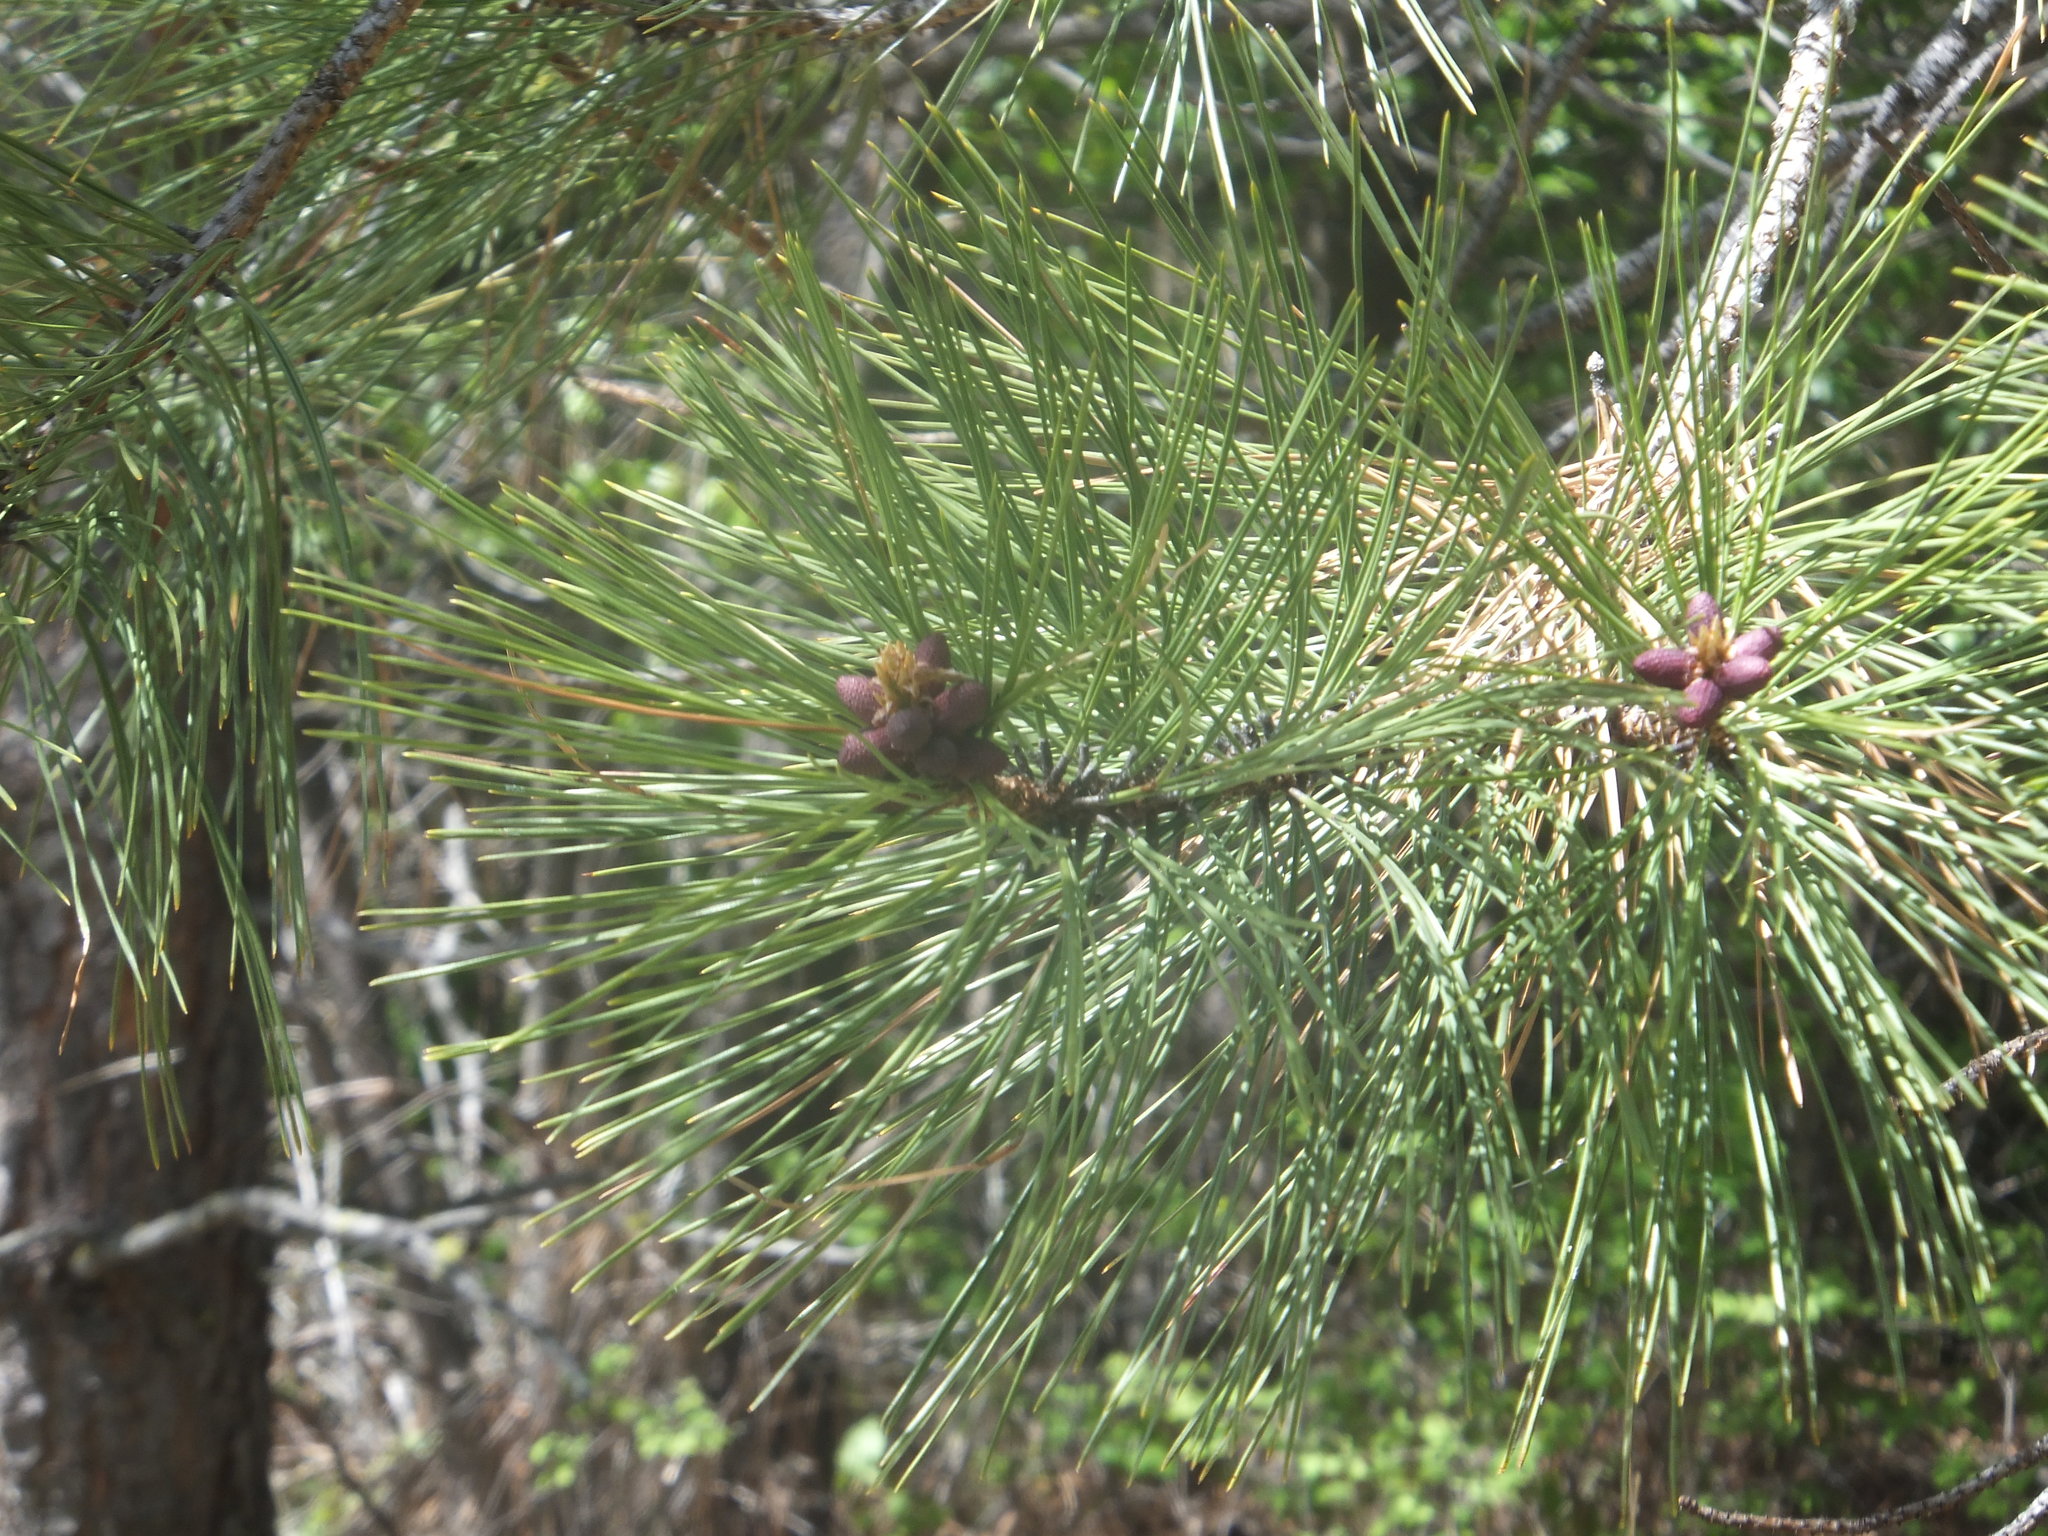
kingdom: Plantae
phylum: Tracheophyta
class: Pinopsida
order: Pinales
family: Pinaceae
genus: Pinus
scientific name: Pinus ponderosa
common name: Western yellow-pine
